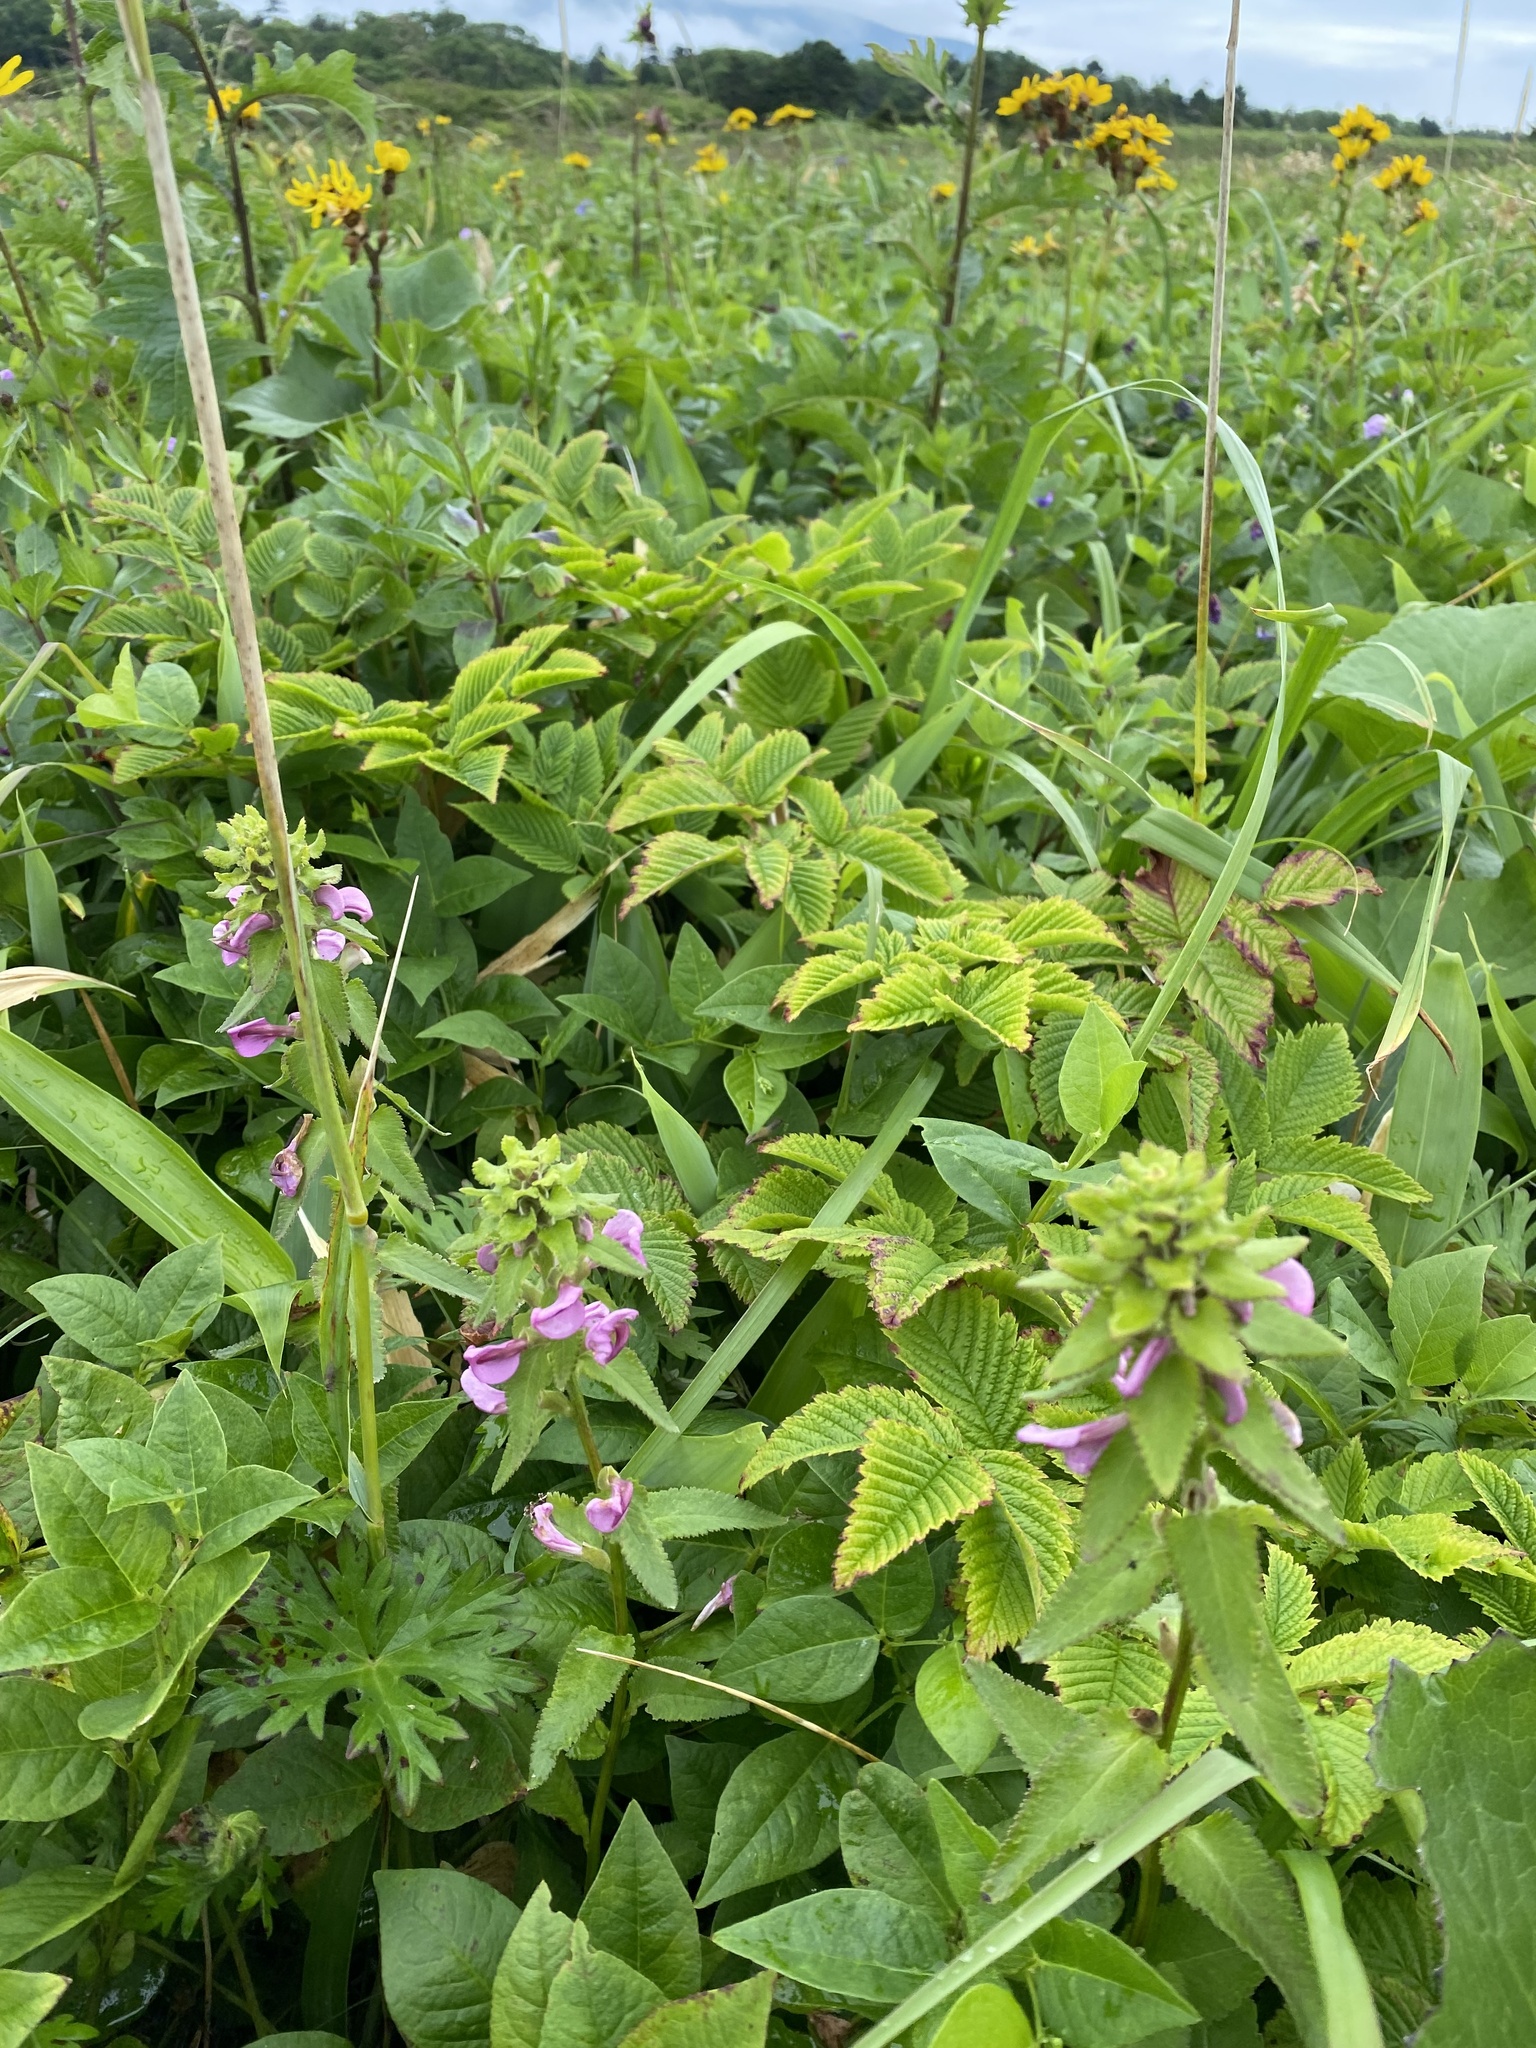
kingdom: Plantae
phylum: Tracheophyta
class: Magnoliopsida
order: Lamiales
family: Orobanchaceae
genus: Pedicularis
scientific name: Pedicularis resupinata
